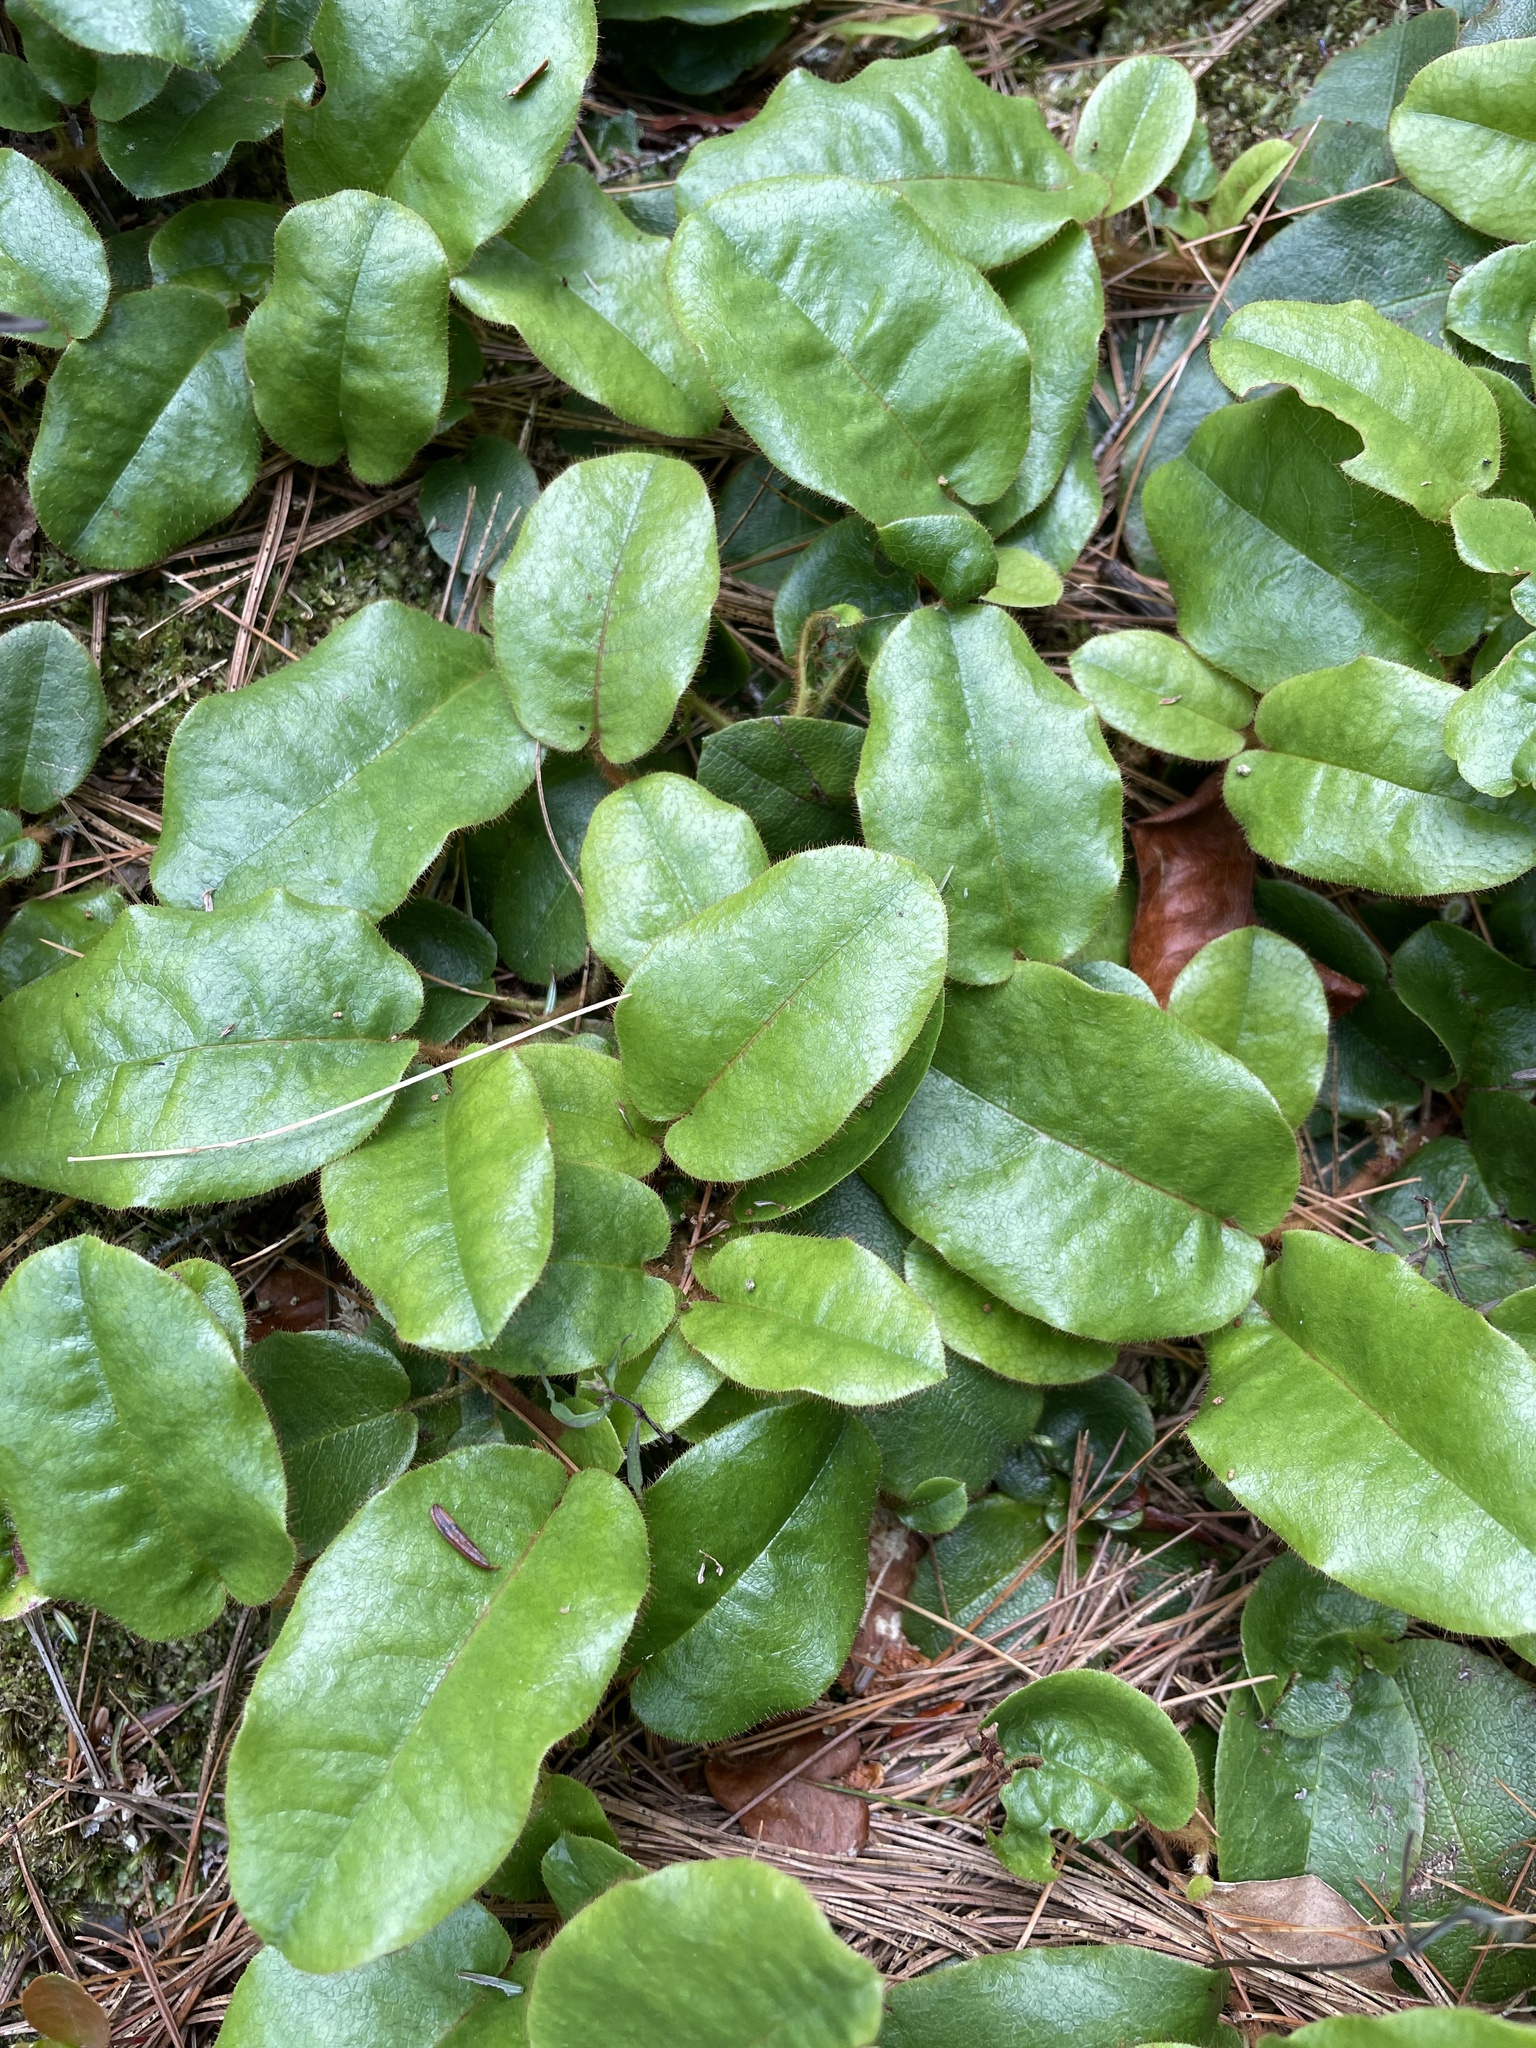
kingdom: Plantae
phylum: Tracheophyta
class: Magnoliopsida
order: Ericales
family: Ericaceae
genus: Epigaea
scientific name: Epigaea repens
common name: Gravelroot
